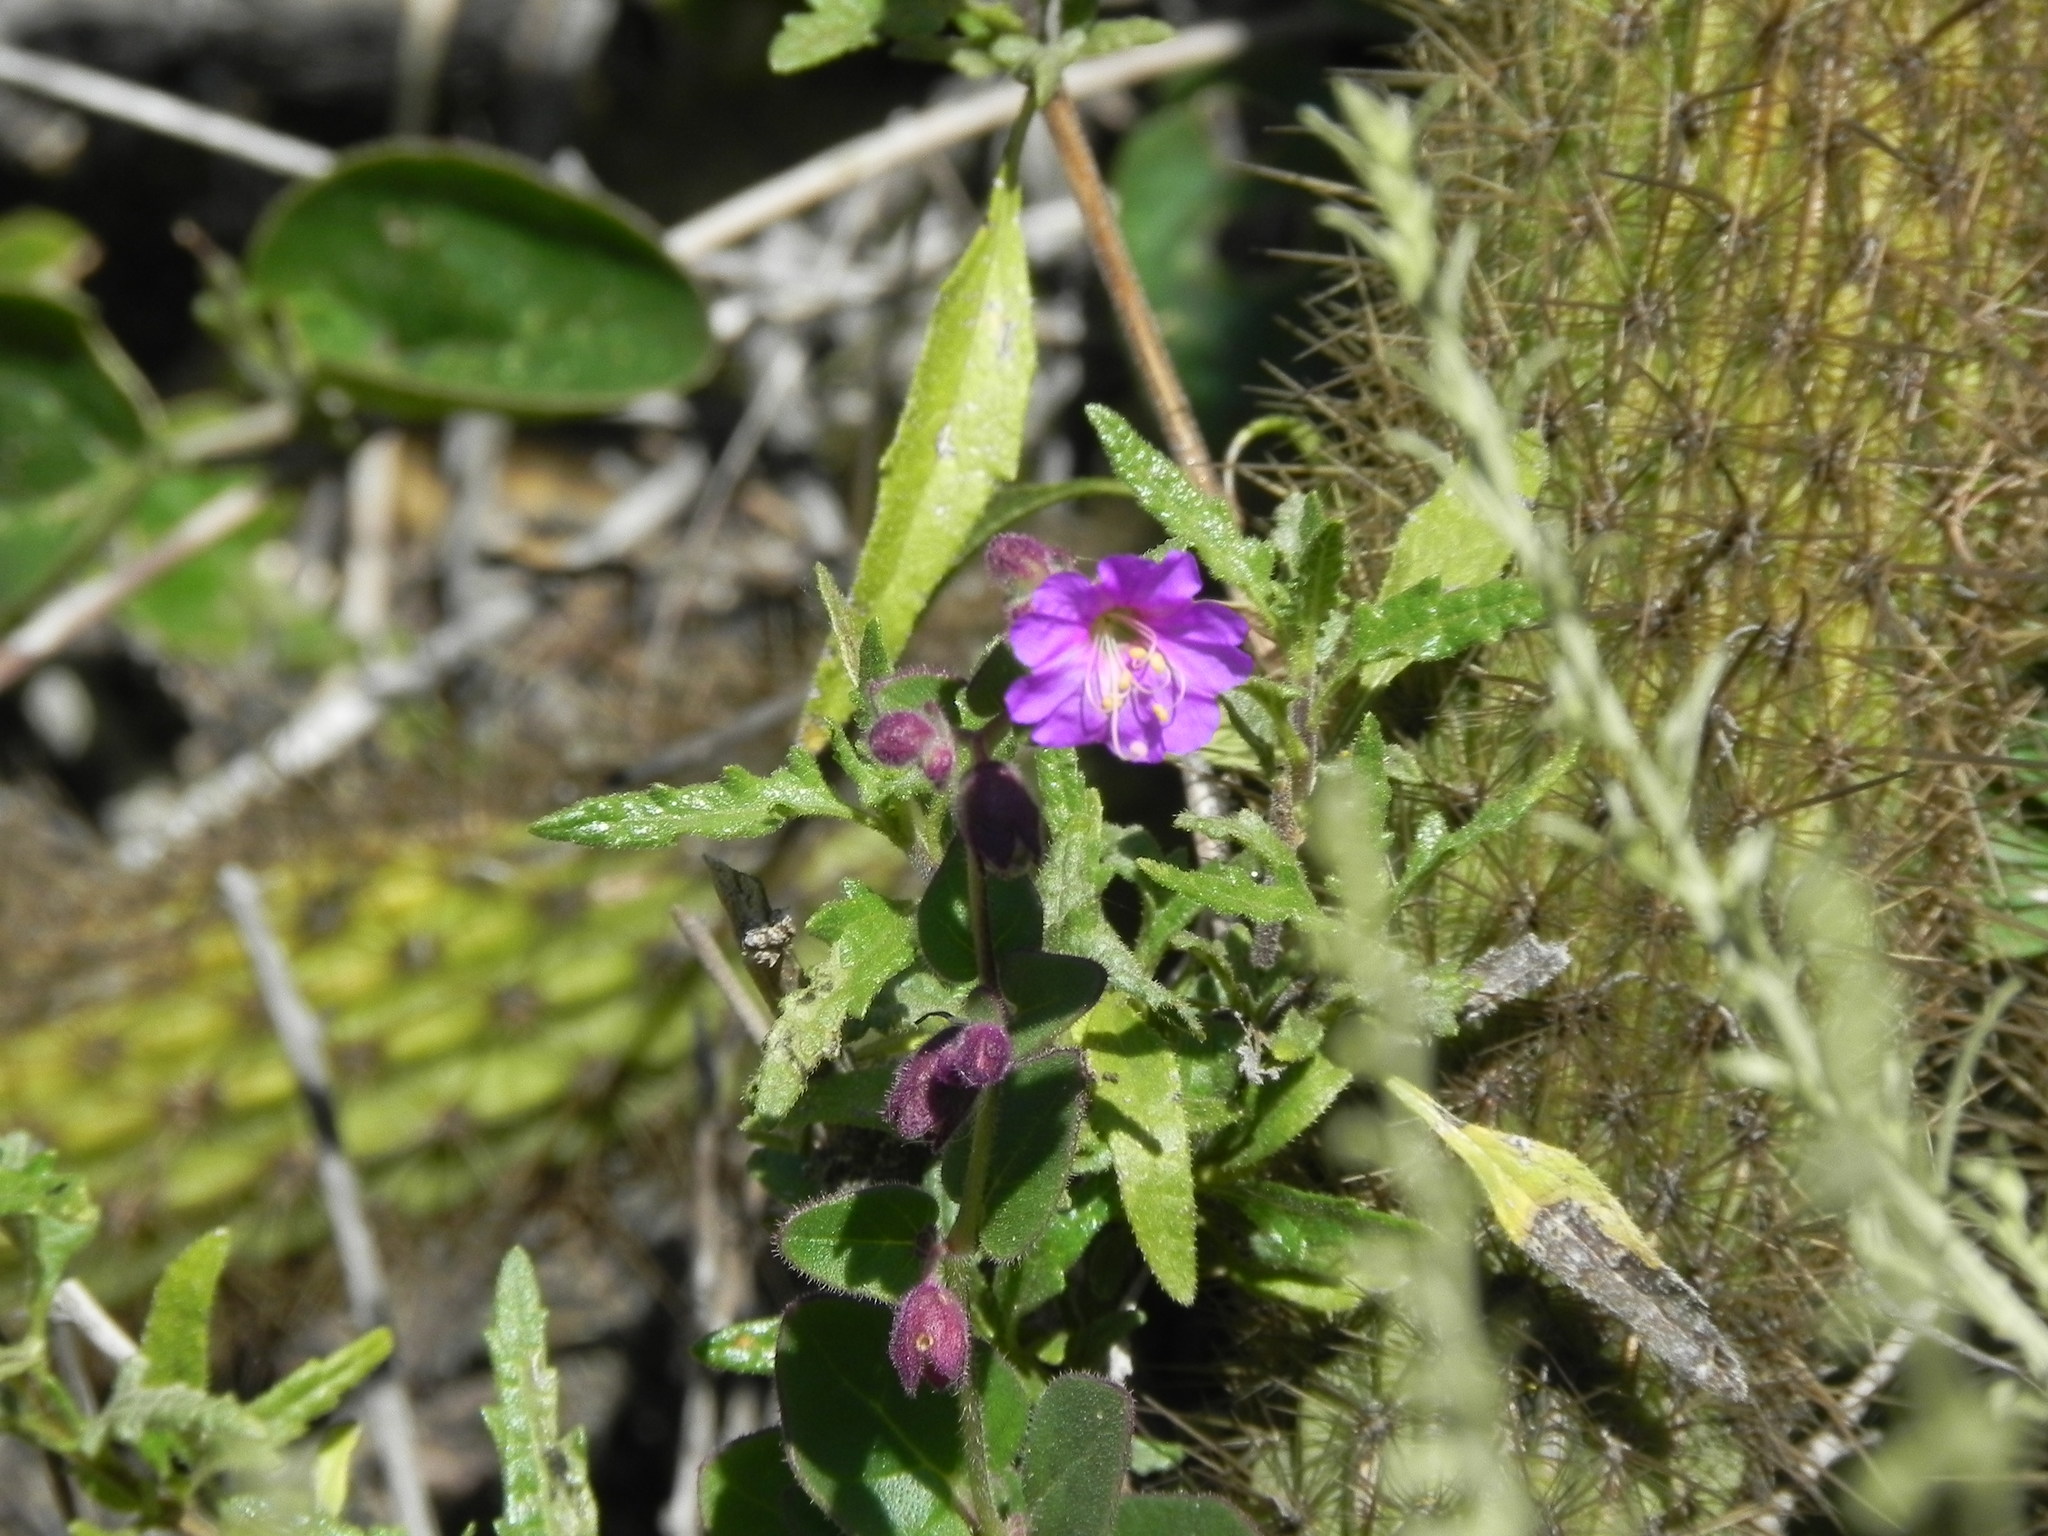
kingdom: Plantae
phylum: Tracheophyta
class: Magnoliopsida
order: Caryophyllales
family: Nyctaginaceae
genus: Mirabilis
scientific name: Mirabilis laevis
